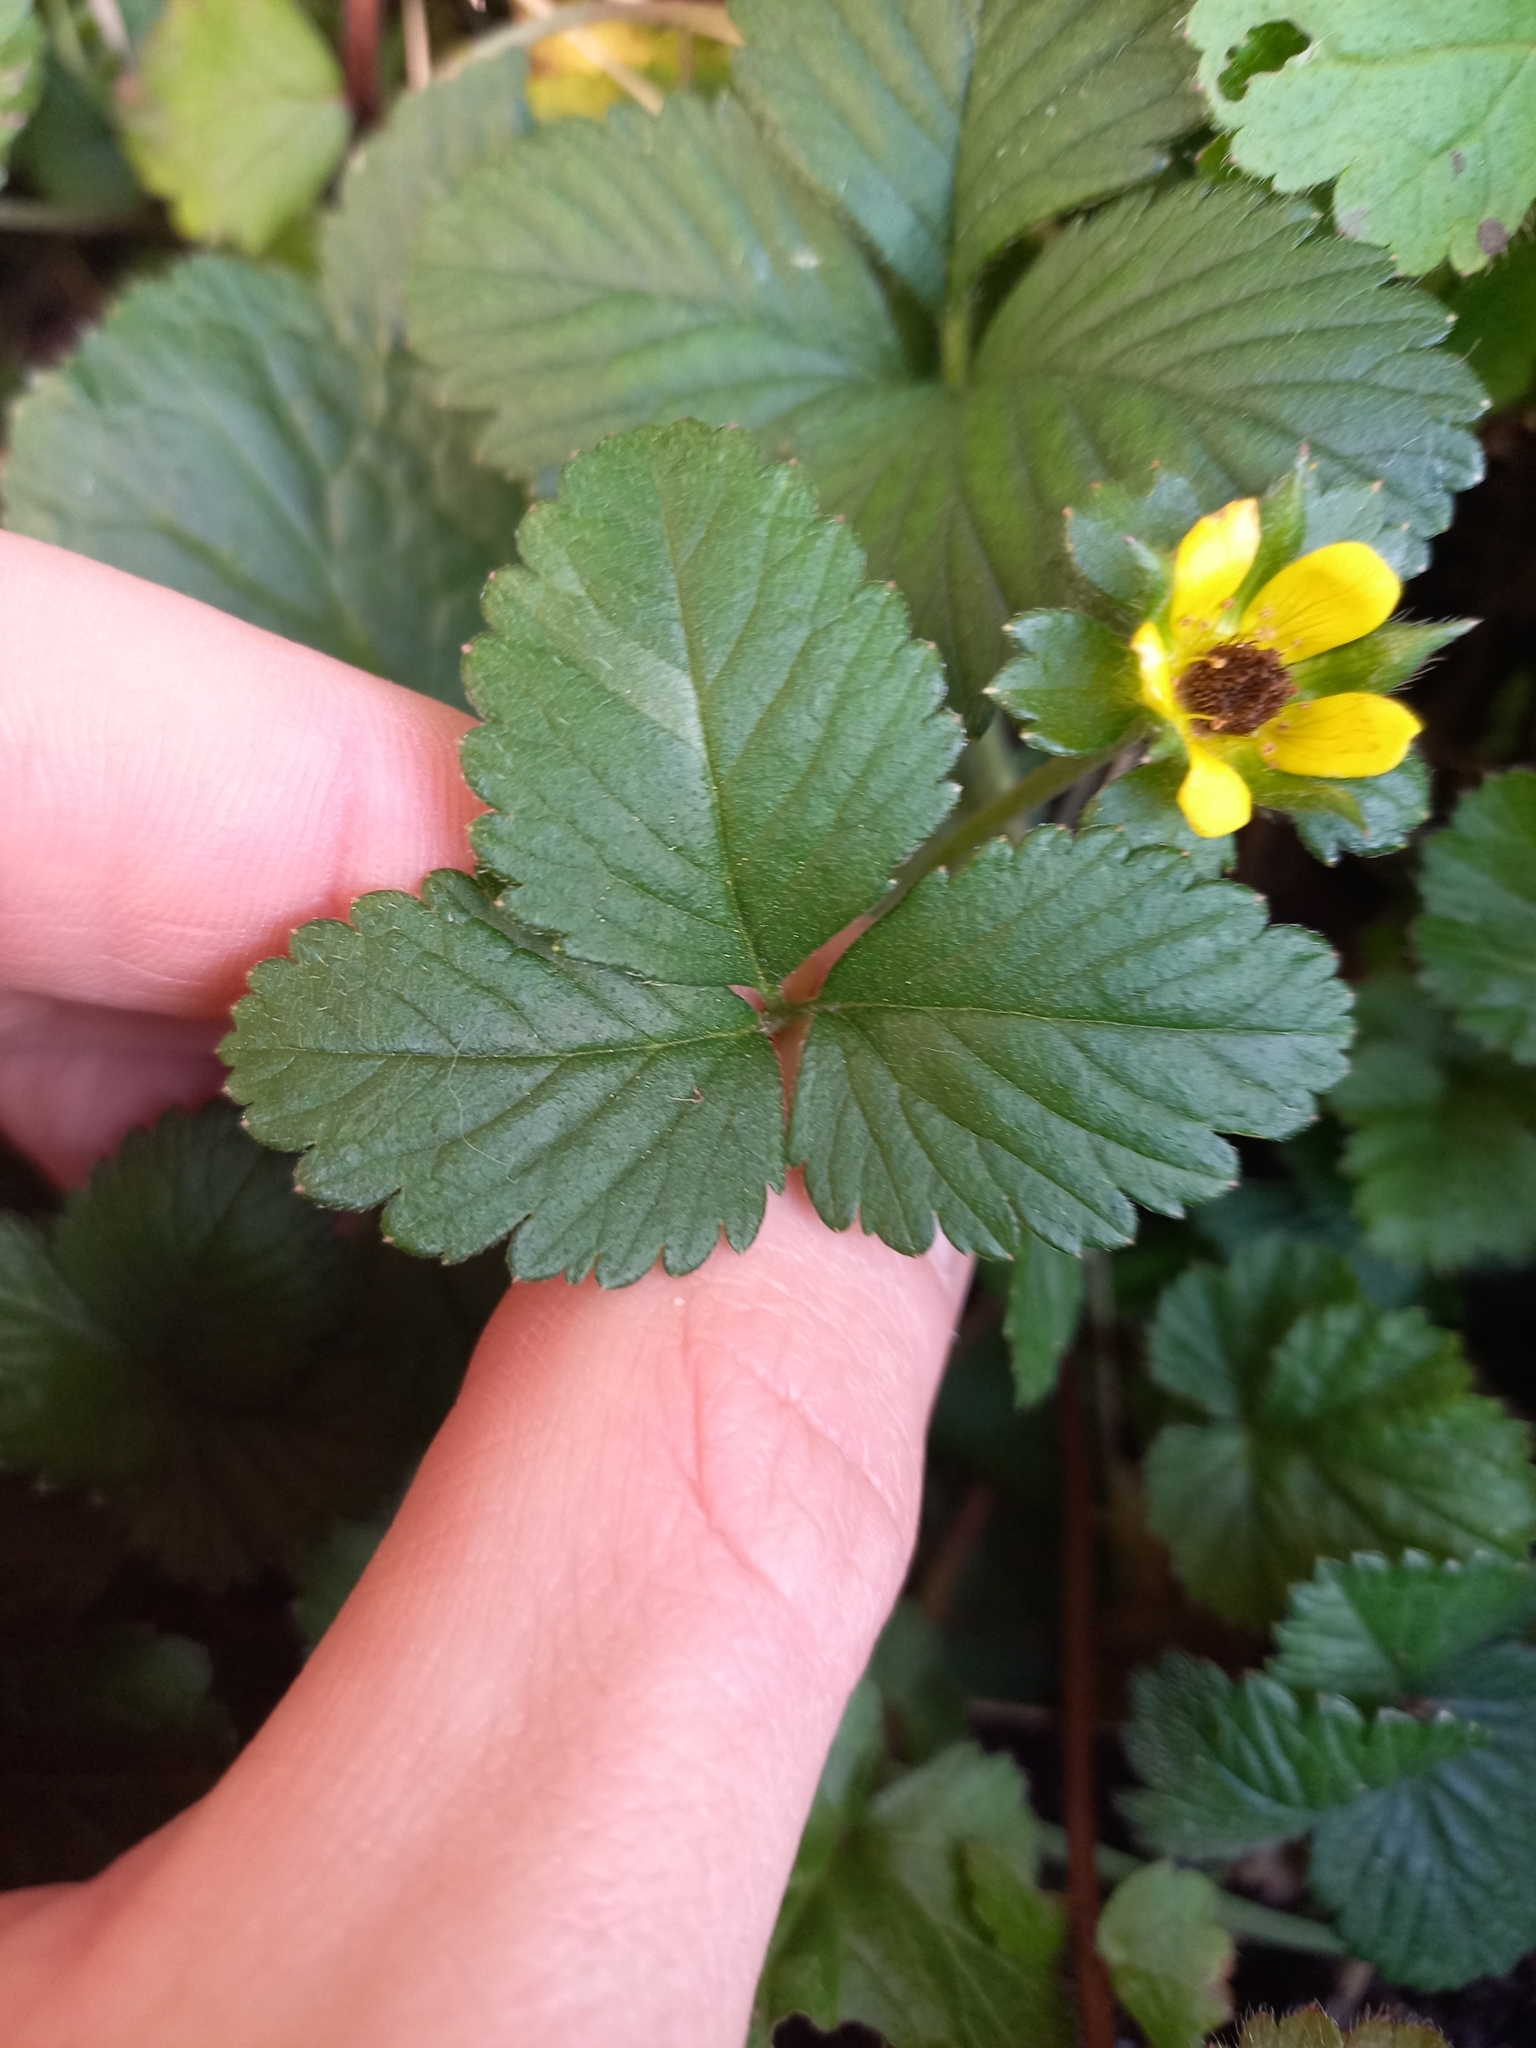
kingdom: Plantae
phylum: Tracheophyta
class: Magnoliopsida
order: Rosales
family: Rosaceae
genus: Potentilla
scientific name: Potentilla indica
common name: Yellow-flowered strawberry
